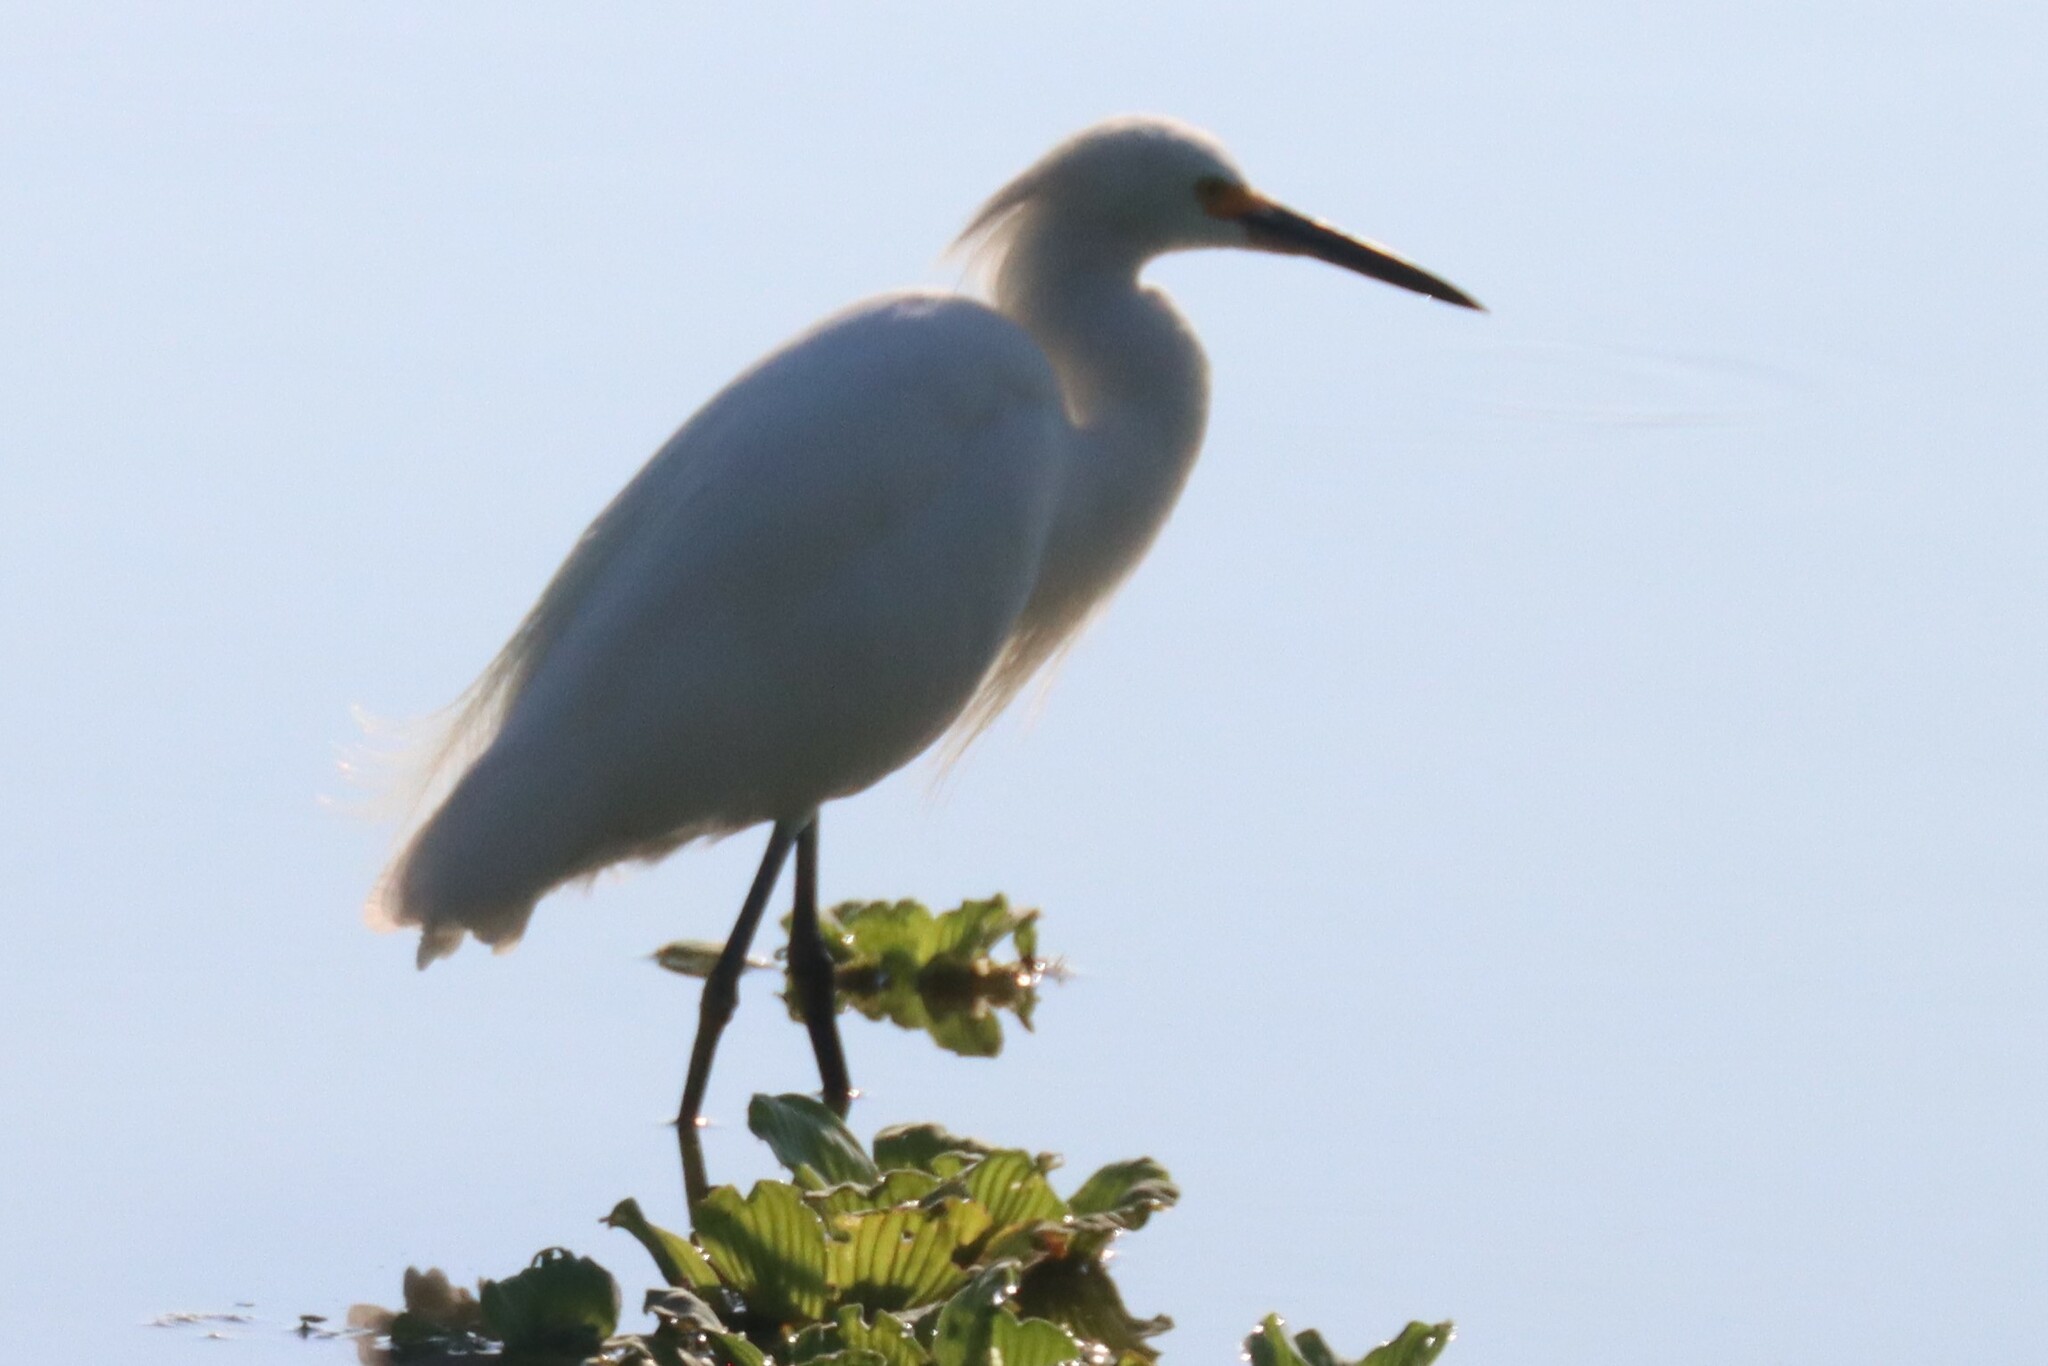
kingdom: Animalia
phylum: Chordata
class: Aves
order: Pelecaniformes
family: Ardeidae
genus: Egretta
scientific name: Egretta thula
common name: Snowy egret
